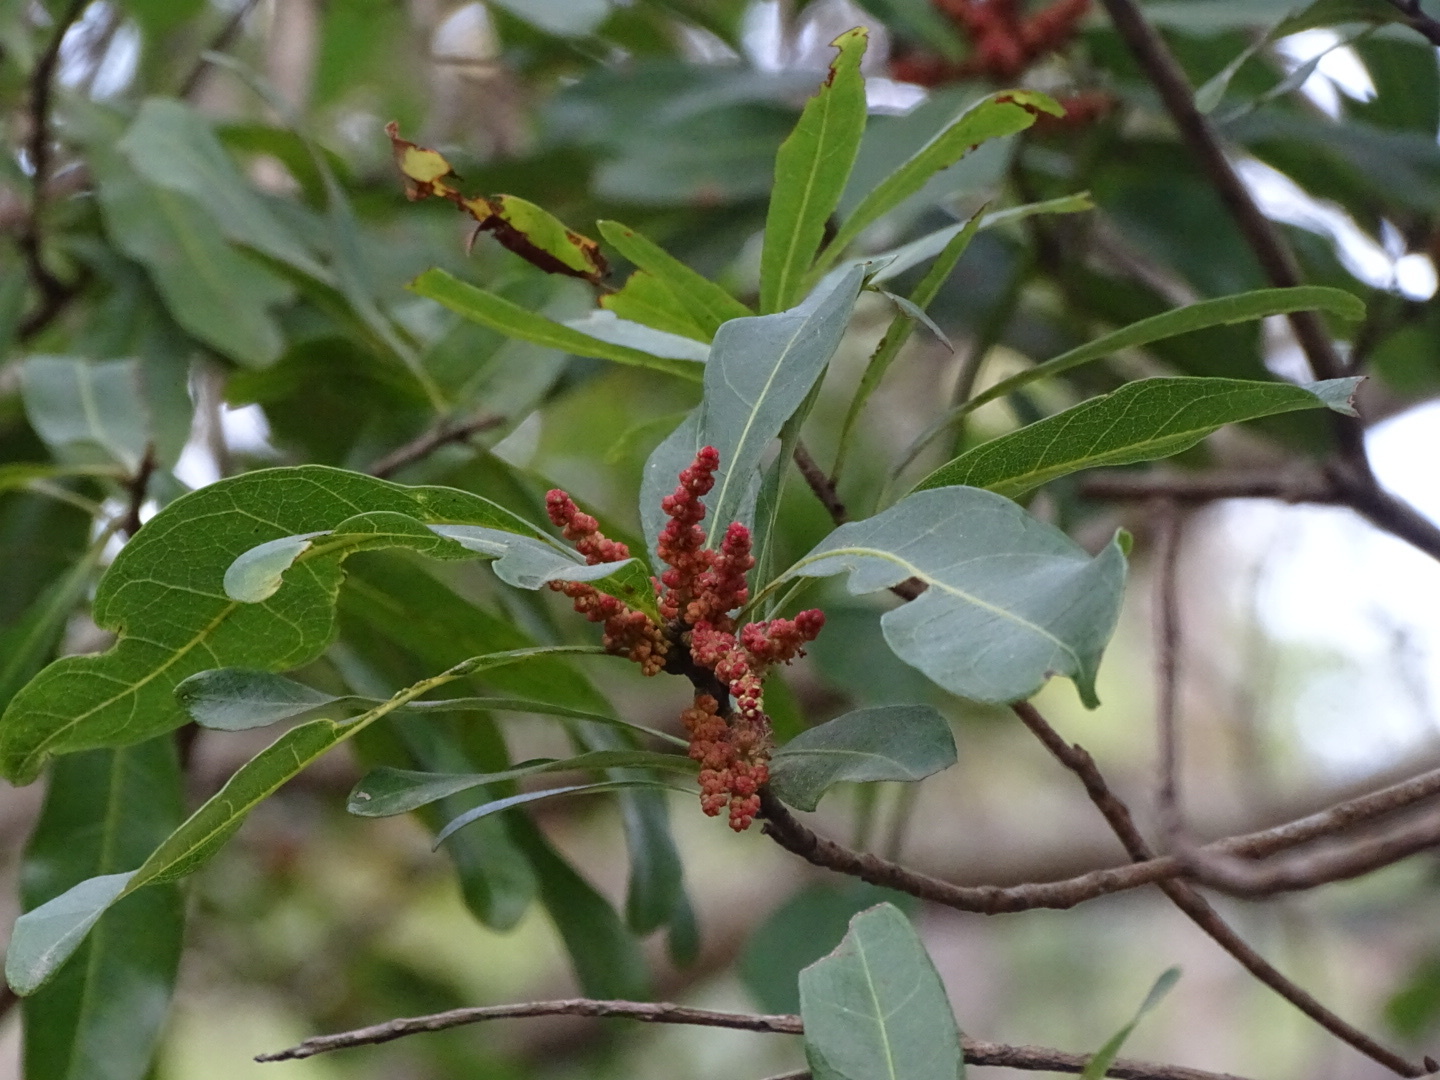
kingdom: Plantae
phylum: Tracheophyta
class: Magnoliopsida
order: Fagales
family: Myricaceae
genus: Morella
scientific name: Morella rubra
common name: Red bayberry
